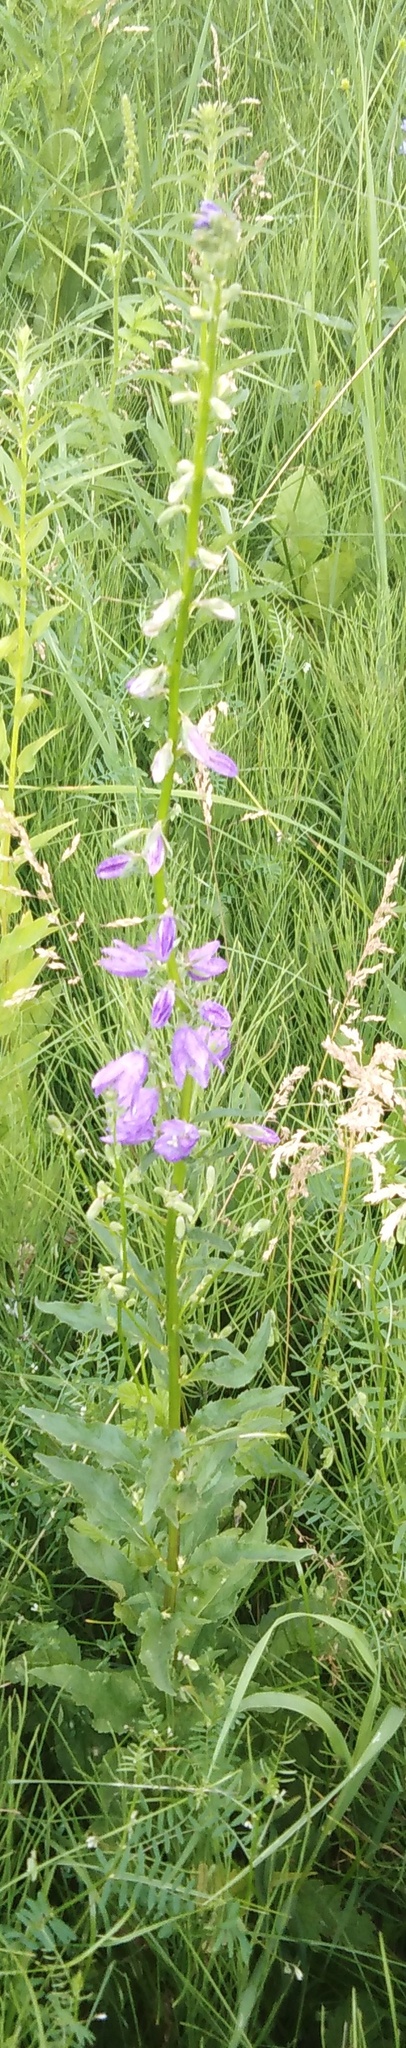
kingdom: Plantae
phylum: Tracheophyta
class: Magnoliopsida
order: Asterales
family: Campanulaceae
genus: Campanula
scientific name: Campanula rapunculoides
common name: Creeping bellflower
